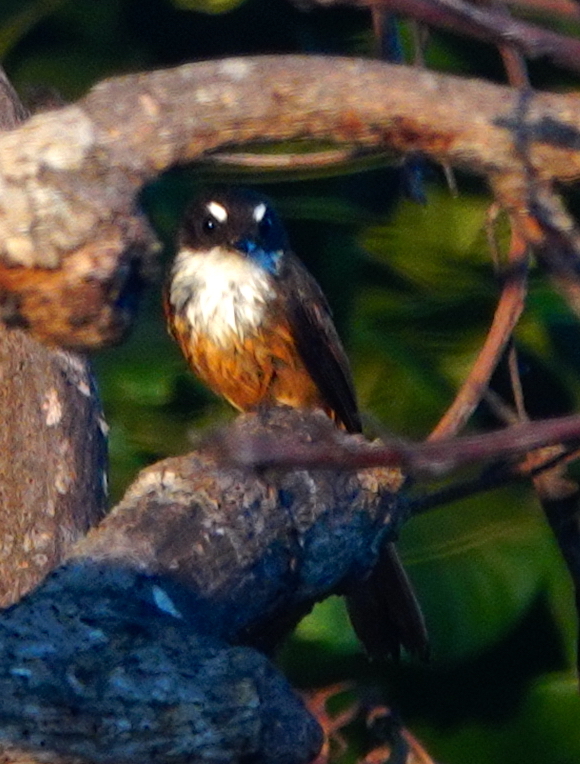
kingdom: Animalia
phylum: Chordata
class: Aves
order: Passeriformes
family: Rhipiduridae
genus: Rhipidura
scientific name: Rhipidura fuscorufa
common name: Cinnamon-tailed fantail
